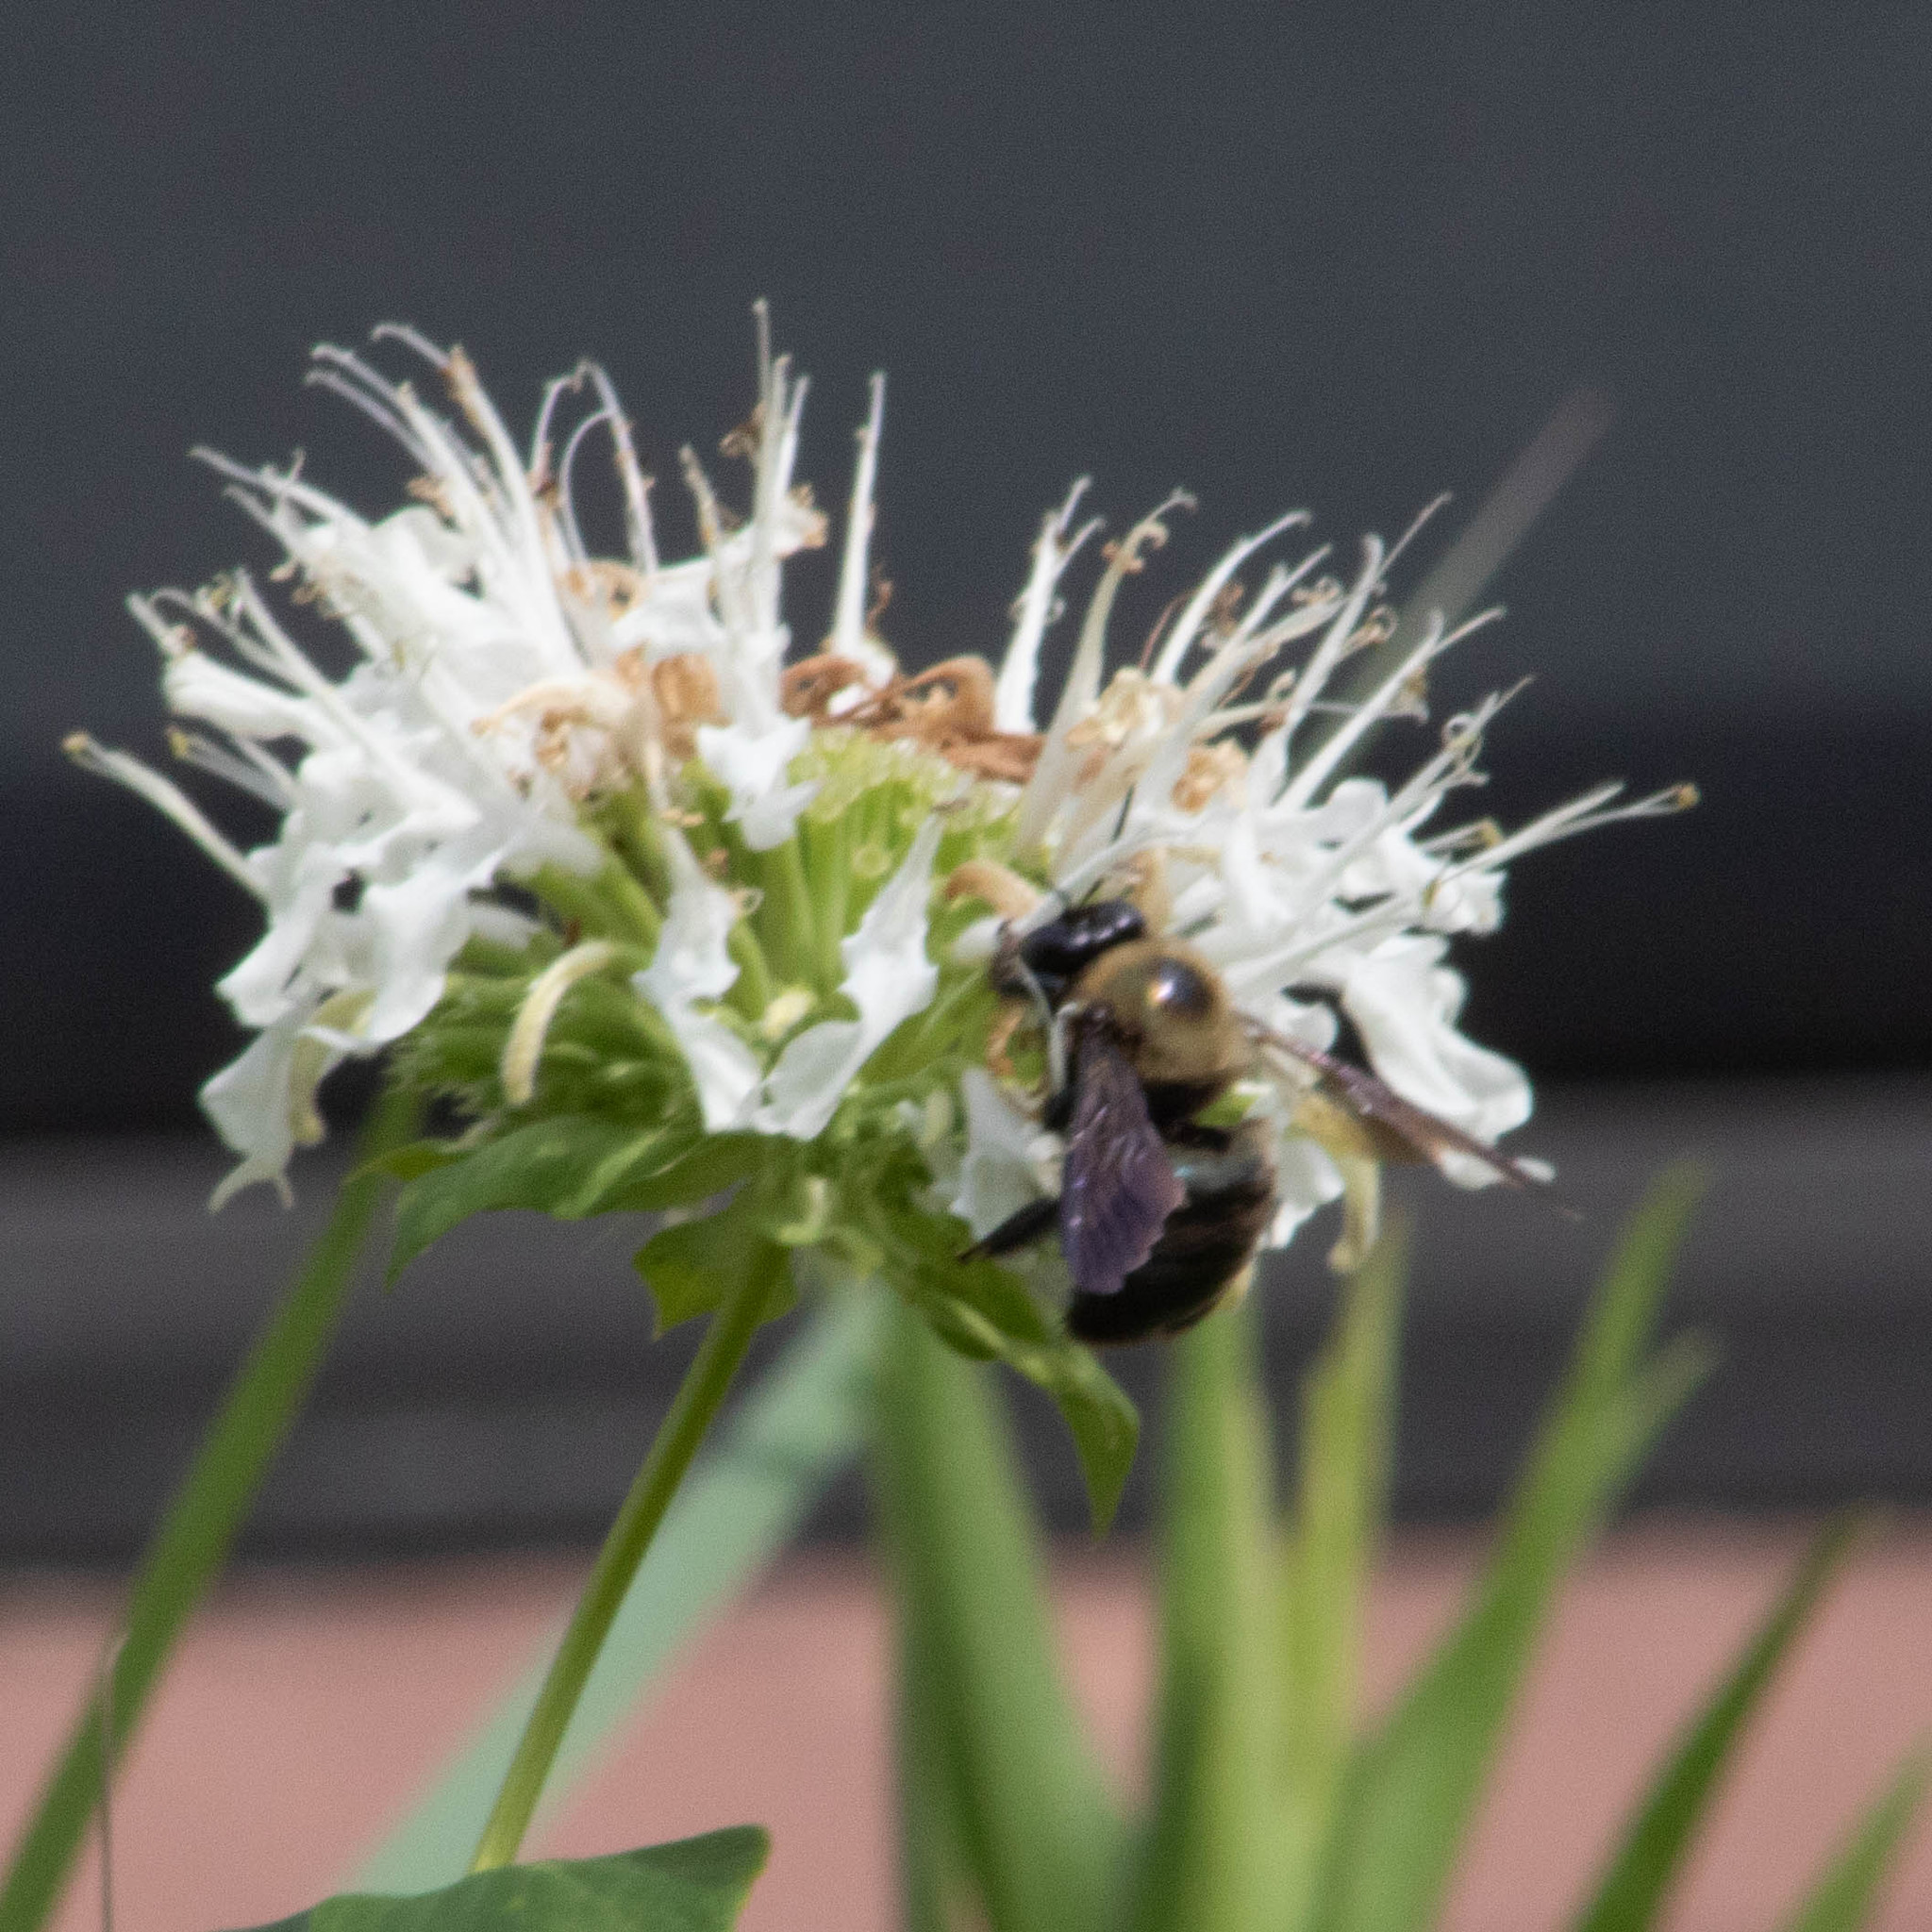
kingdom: Animalia
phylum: Arthropoda
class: Insecta
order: Hymenoptera
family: Apidae
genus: Xylocopa
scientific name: Xylocopa virginica
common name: Carpenter bee
